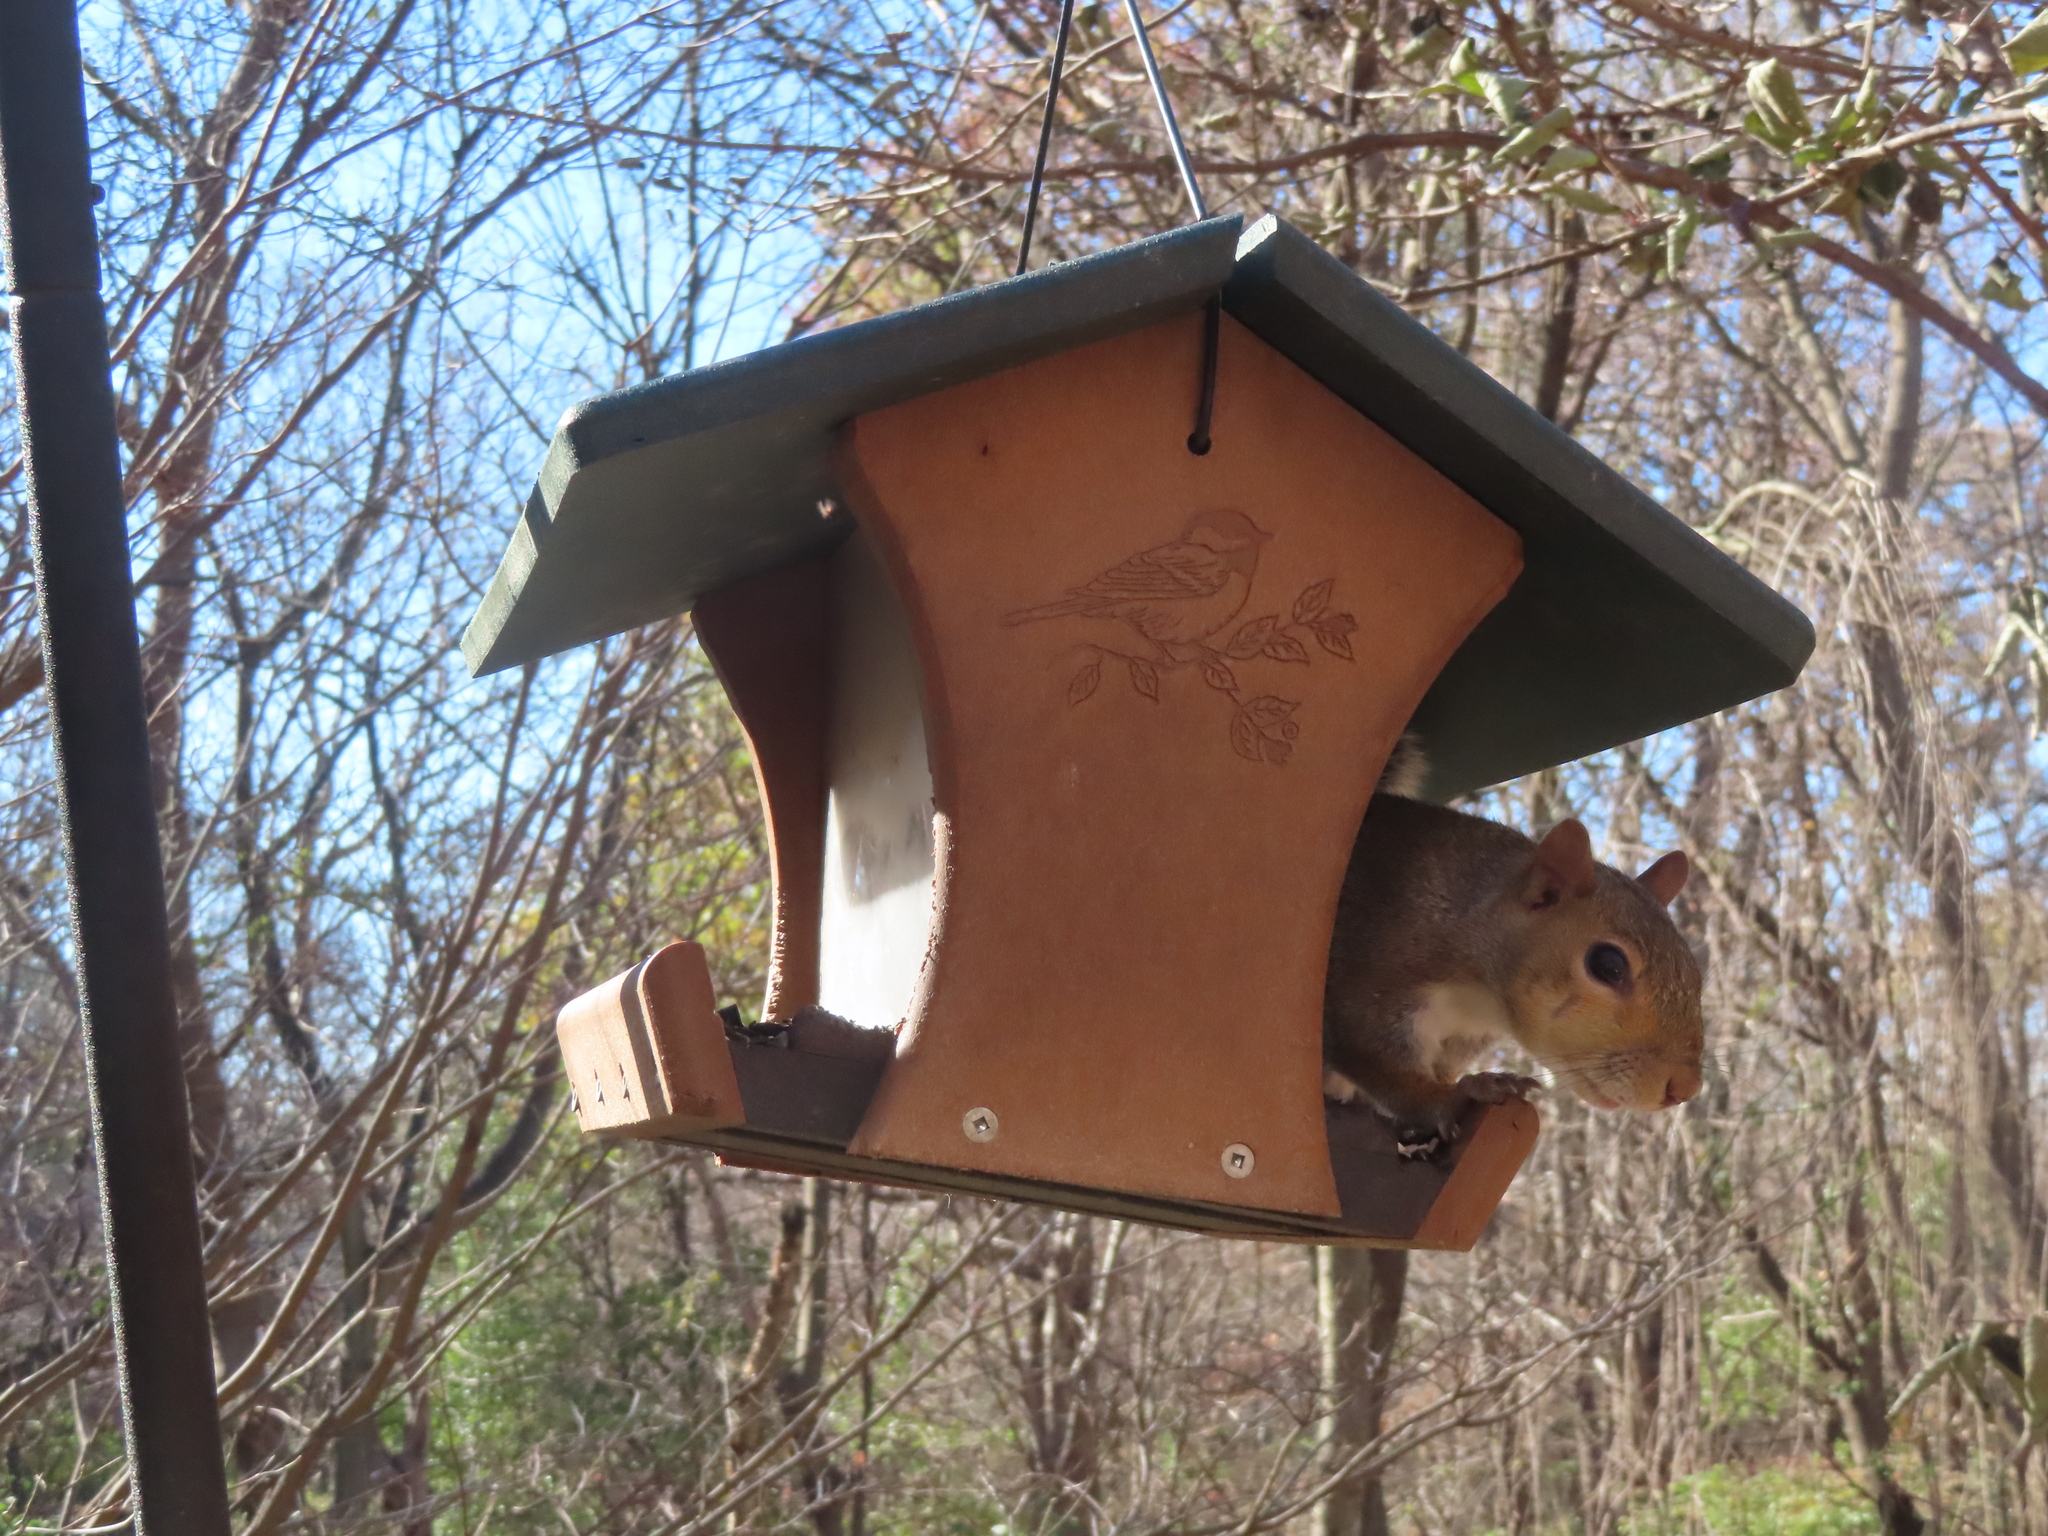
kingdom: Animalia
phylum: Chordata
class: Mammalia
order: Rodentia
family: Sciuridae
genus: Sciurus
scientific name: Sciurus carolinensis
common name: Eastern gray squirrel
